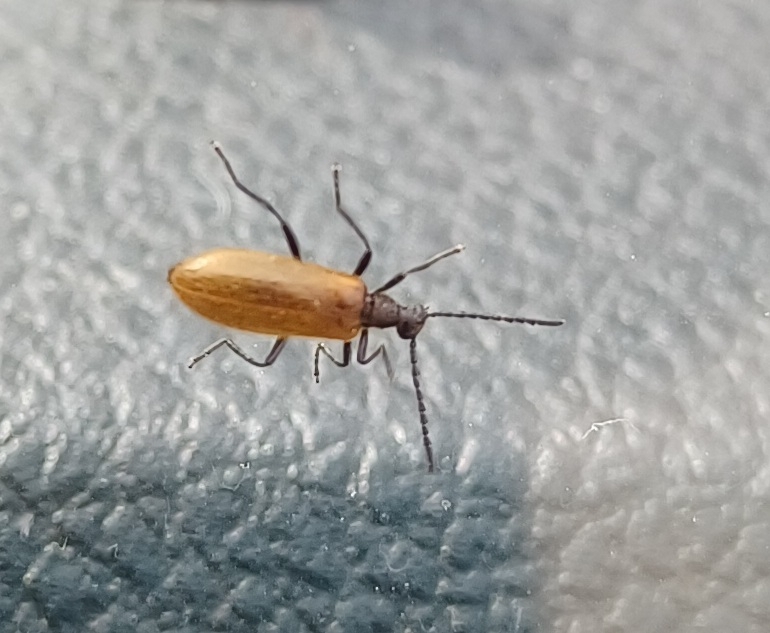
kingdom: Animalia
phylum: Arthropoda
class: Insecta
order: Coleoptera
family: Tenebrionidae
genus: Lagria
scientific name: Lagria hirta
